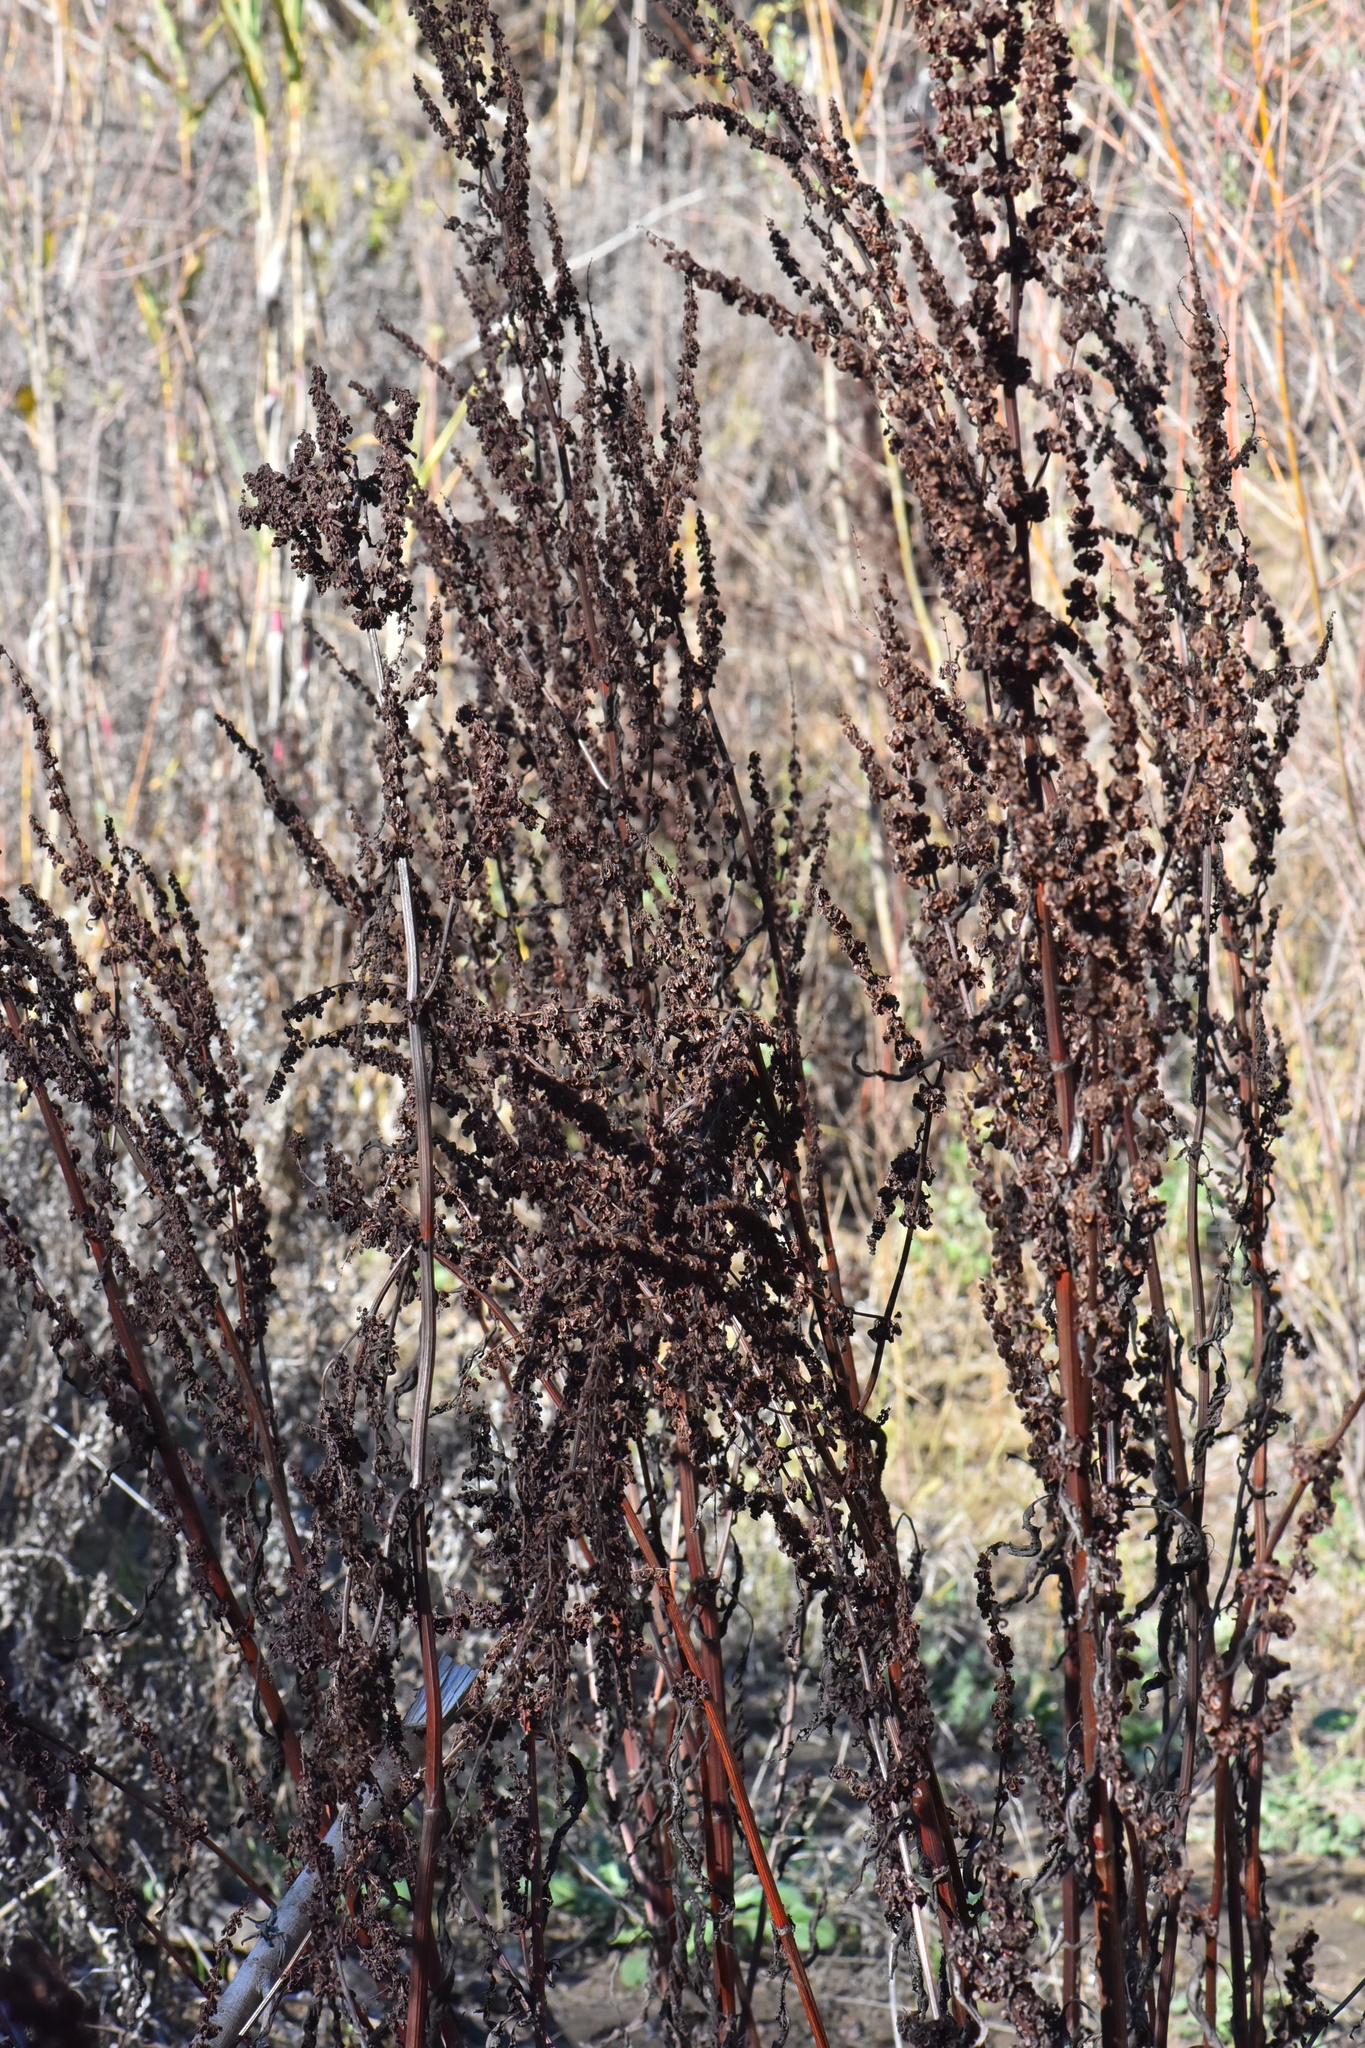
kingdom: Plantae
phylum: Tracheophyta
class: Magnoliopsida
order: Caryophyllales
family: Polygonaceae
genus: Rumex
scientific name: Rumex crispus
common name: Curled dock
